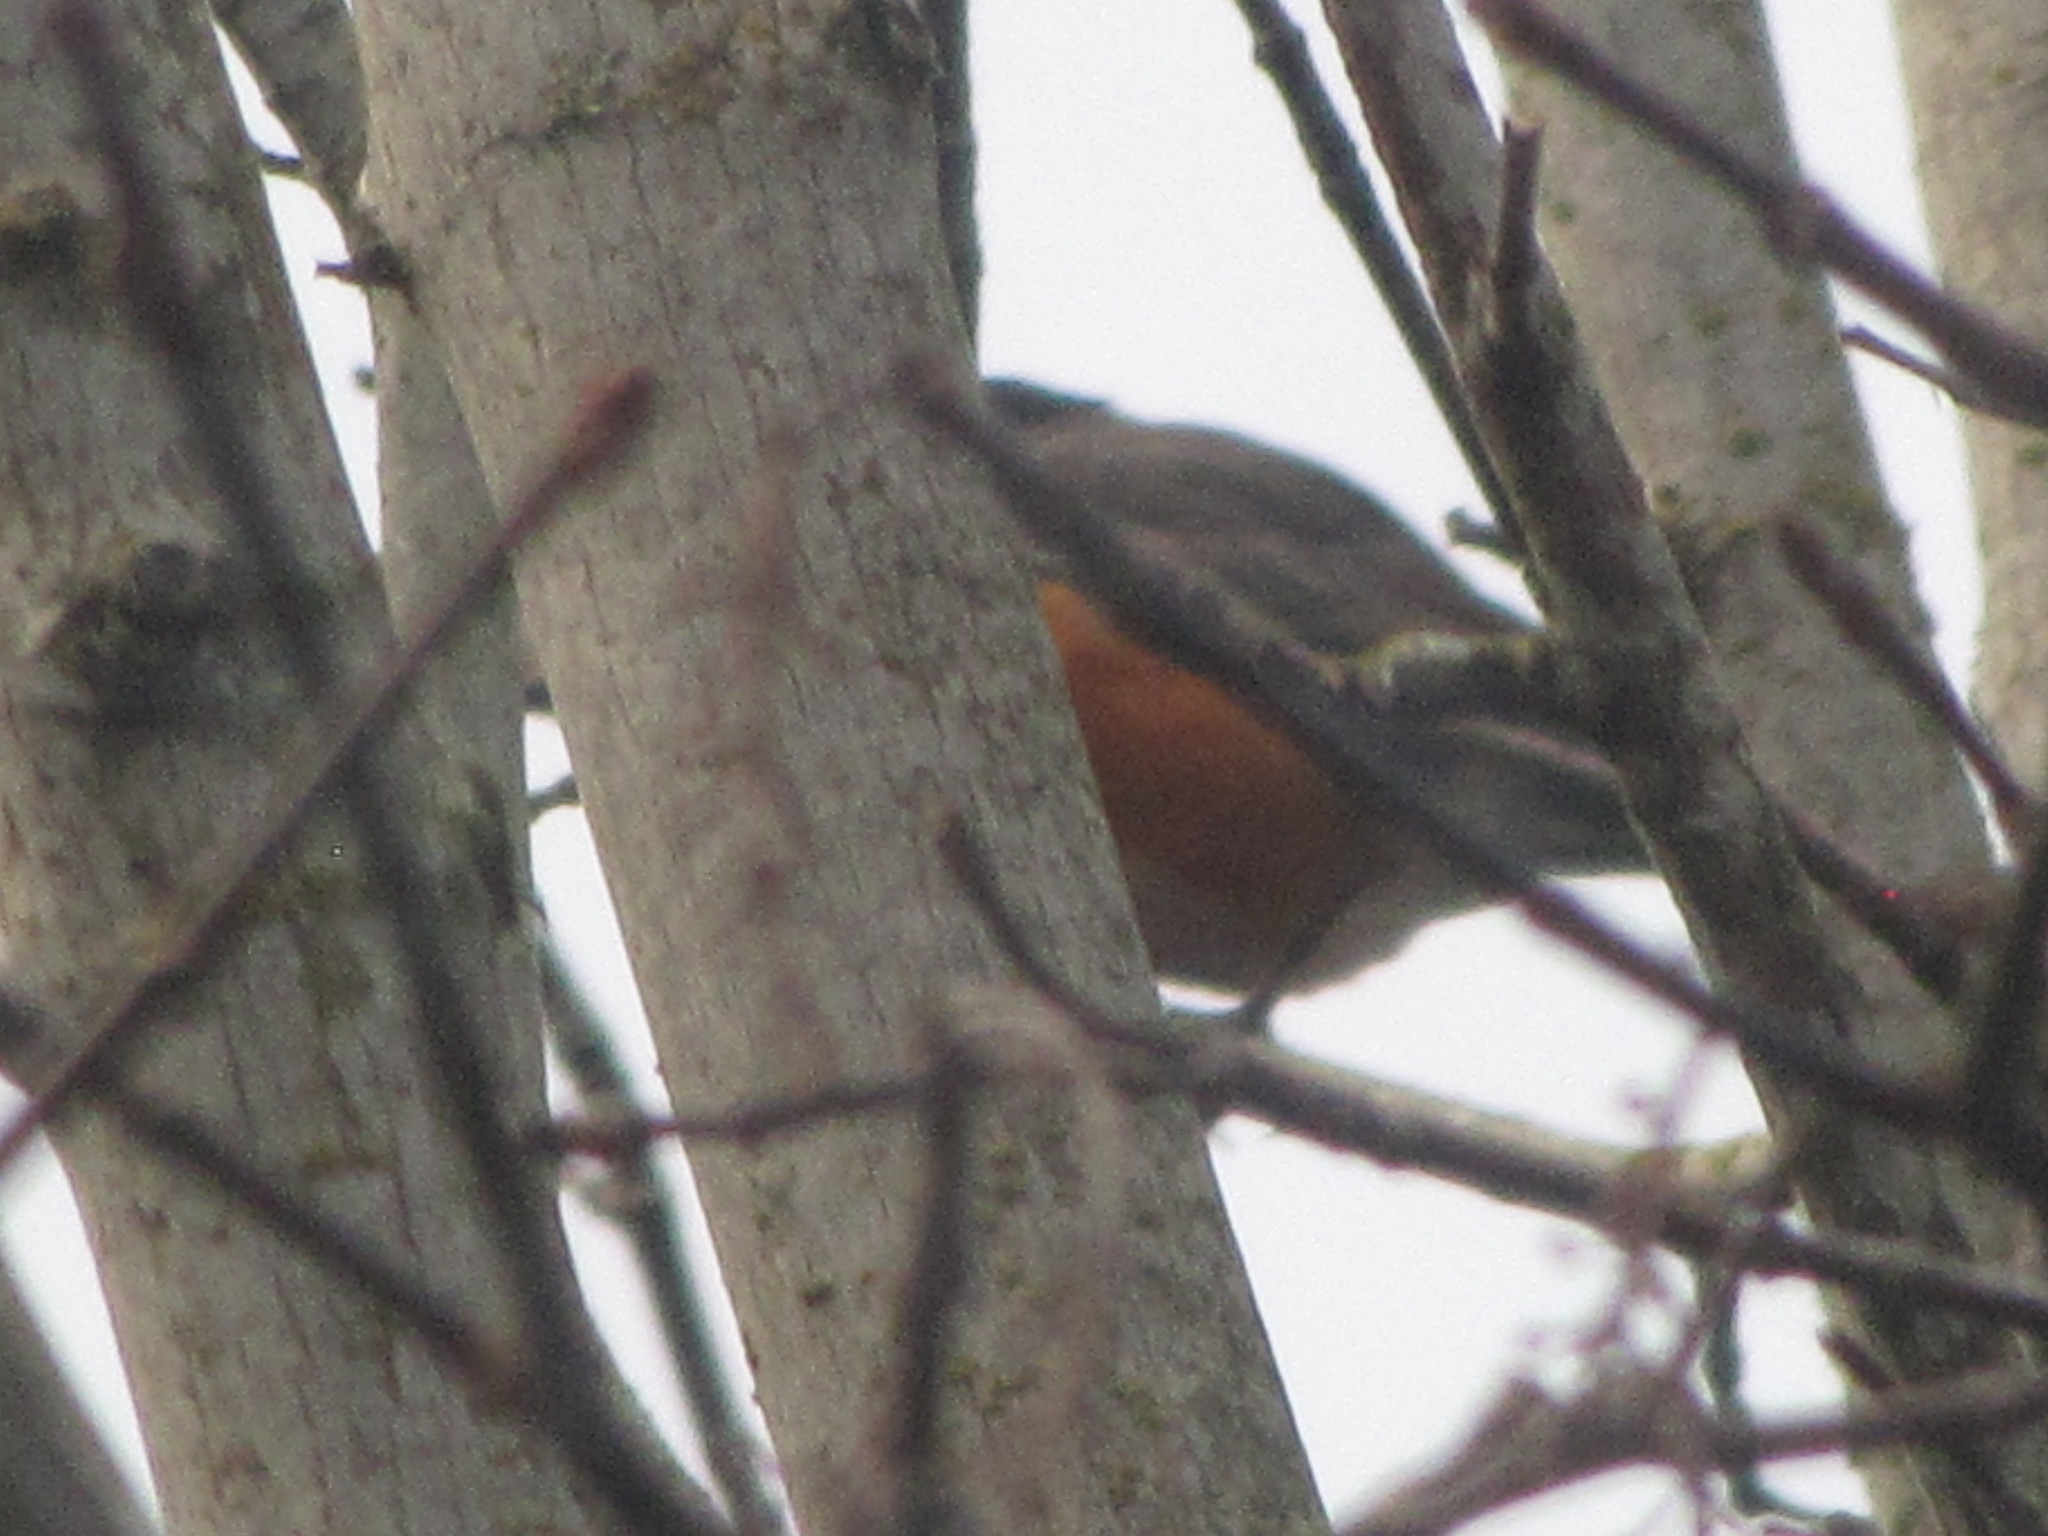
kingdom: Animalia
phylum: Chordata
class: Aves
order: Passeriformes
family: Turdidae
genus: Turdus
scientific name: Turdus migratorius
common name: American robin
